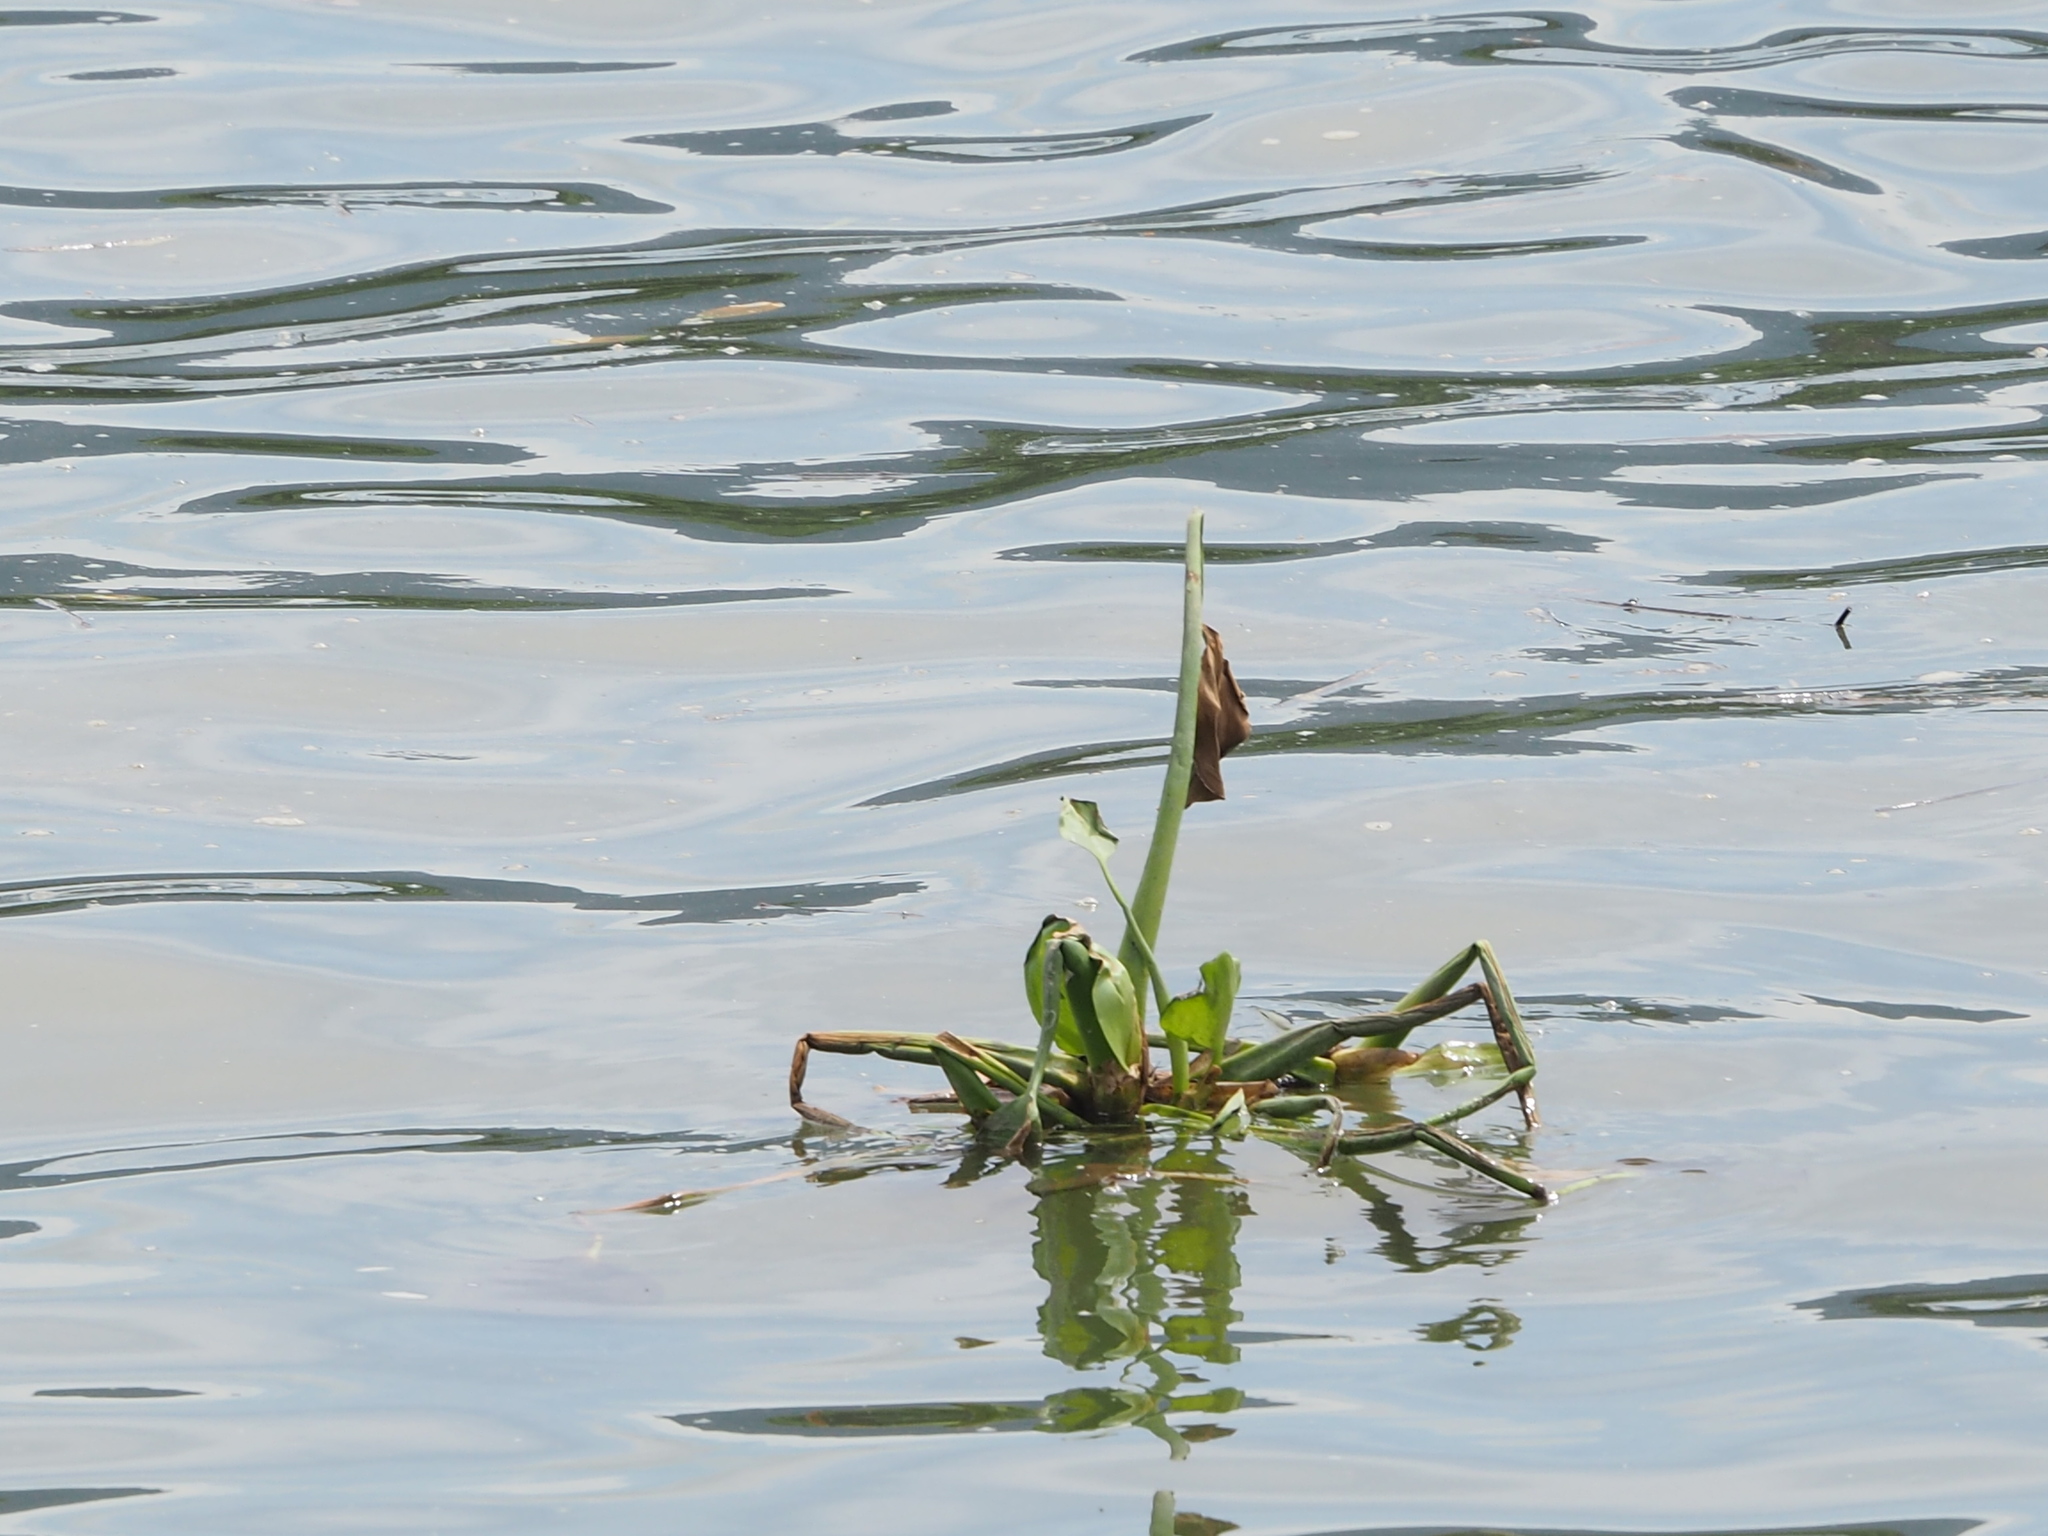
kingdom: Plantae
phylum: Tracheophyta
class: Liliopsida
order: Commelinales
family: Pontederiaceae
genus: Pontederia
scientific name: Pontederia crassipes
